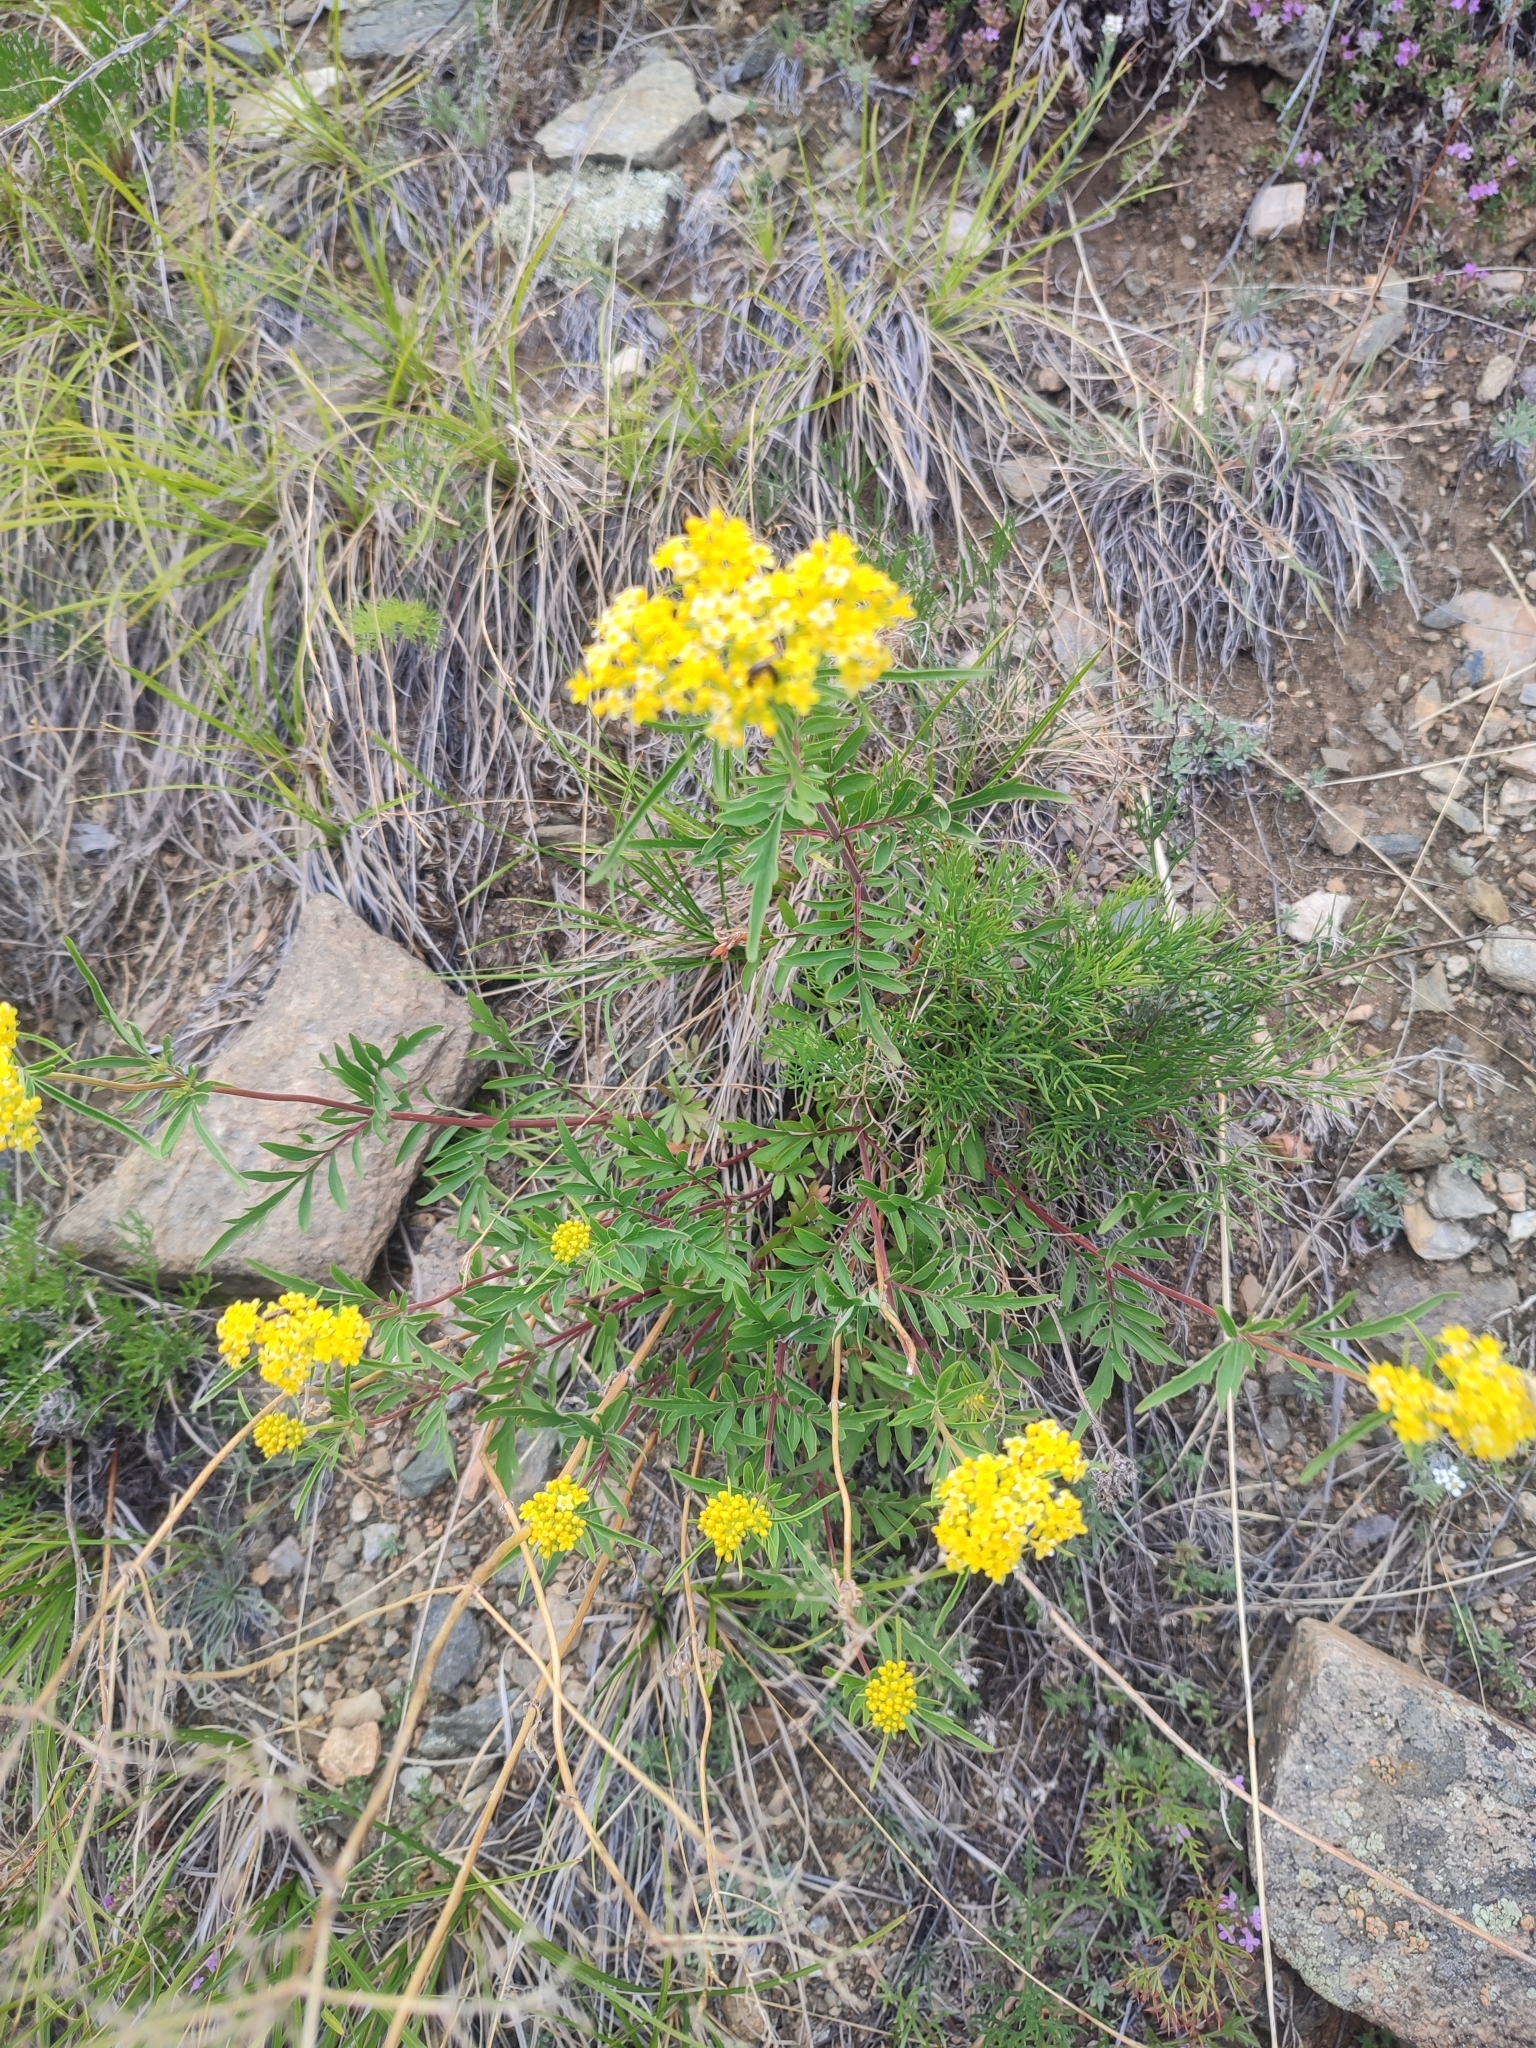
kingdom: Plantae
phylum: Tracheophyta
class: Magnoliopsida
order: Dipsacales
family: Caprifoliaceae
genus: Patrinia
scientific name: Patrinia rupestris
